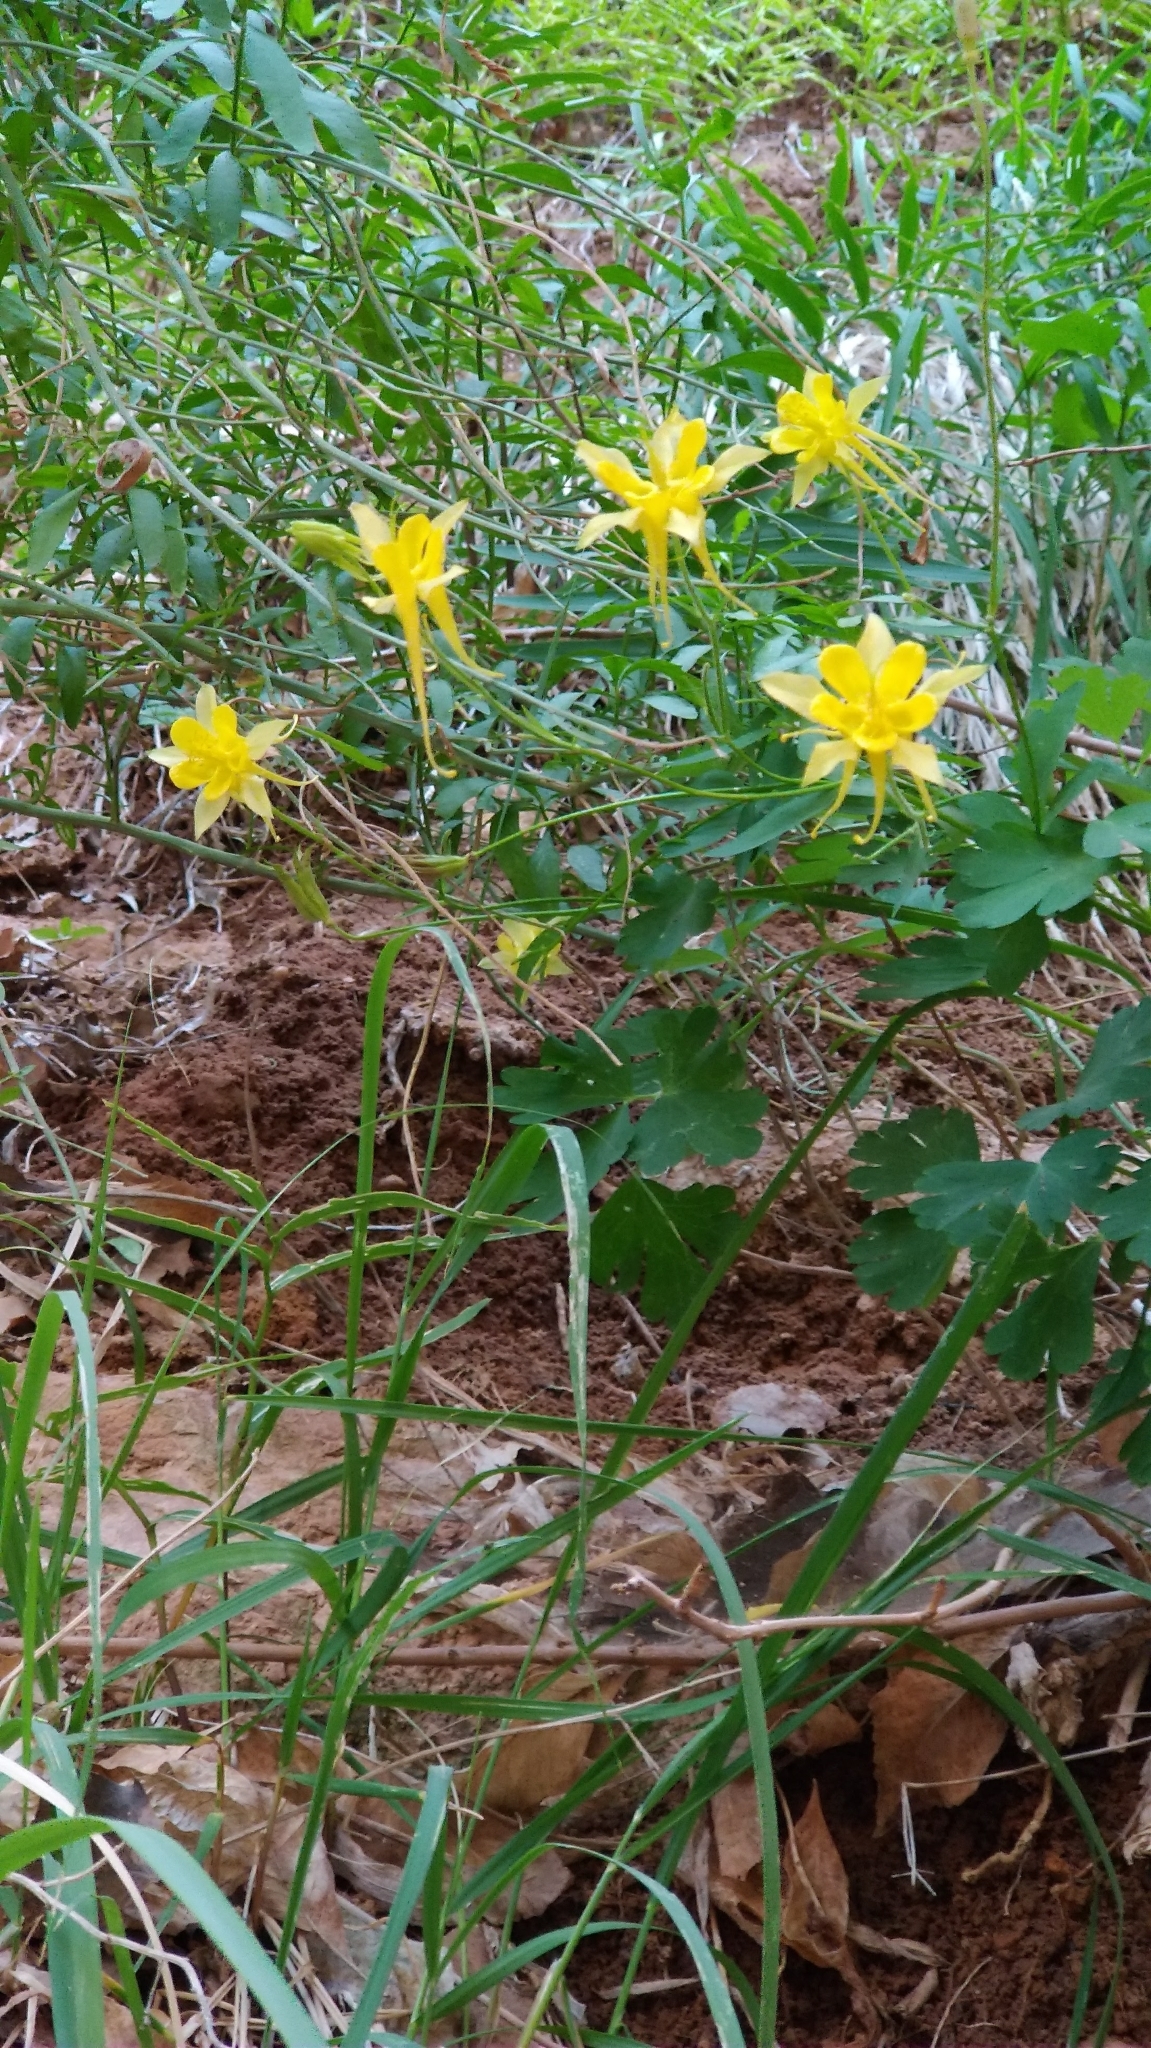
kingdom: Plantae
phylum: Tracheophyta
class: Magnoliopsida
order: Ranunculales
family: Ranunculaceae
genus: Aquilegia
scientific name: Aquilegia chrysantha
